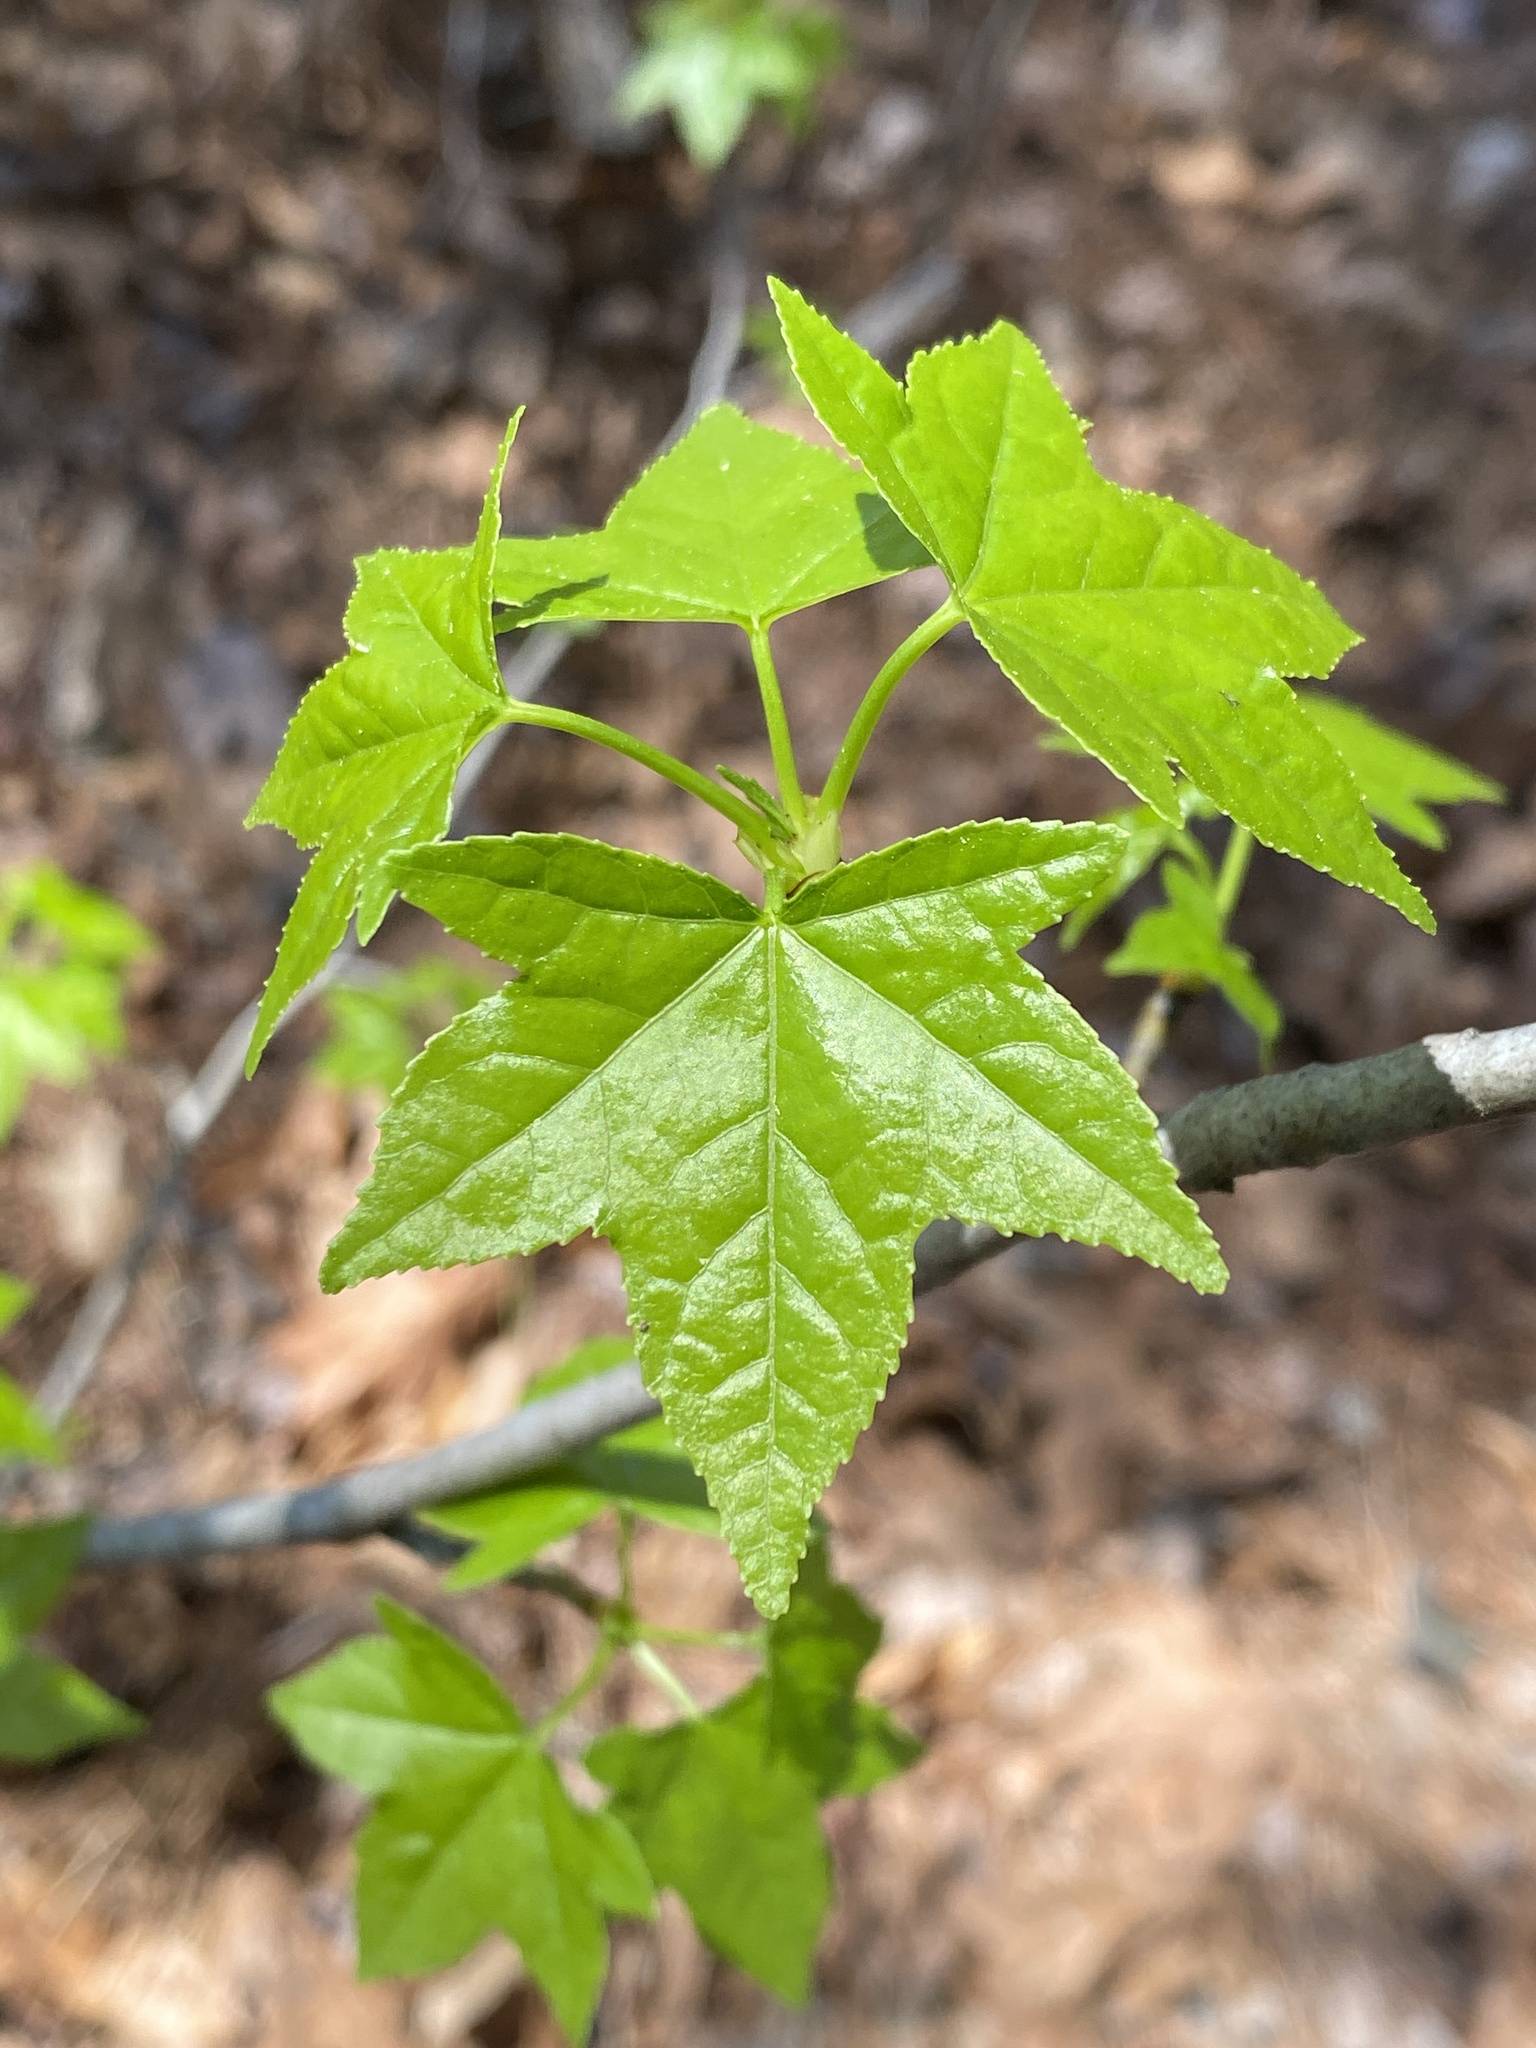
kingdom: Plantae
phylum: Tracheophyta
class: Magnoliopsida
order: Saxifragales
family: Altingiaceae
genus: Liquidambar
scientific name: Liquidambar styraciflua
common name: Sweet gum
